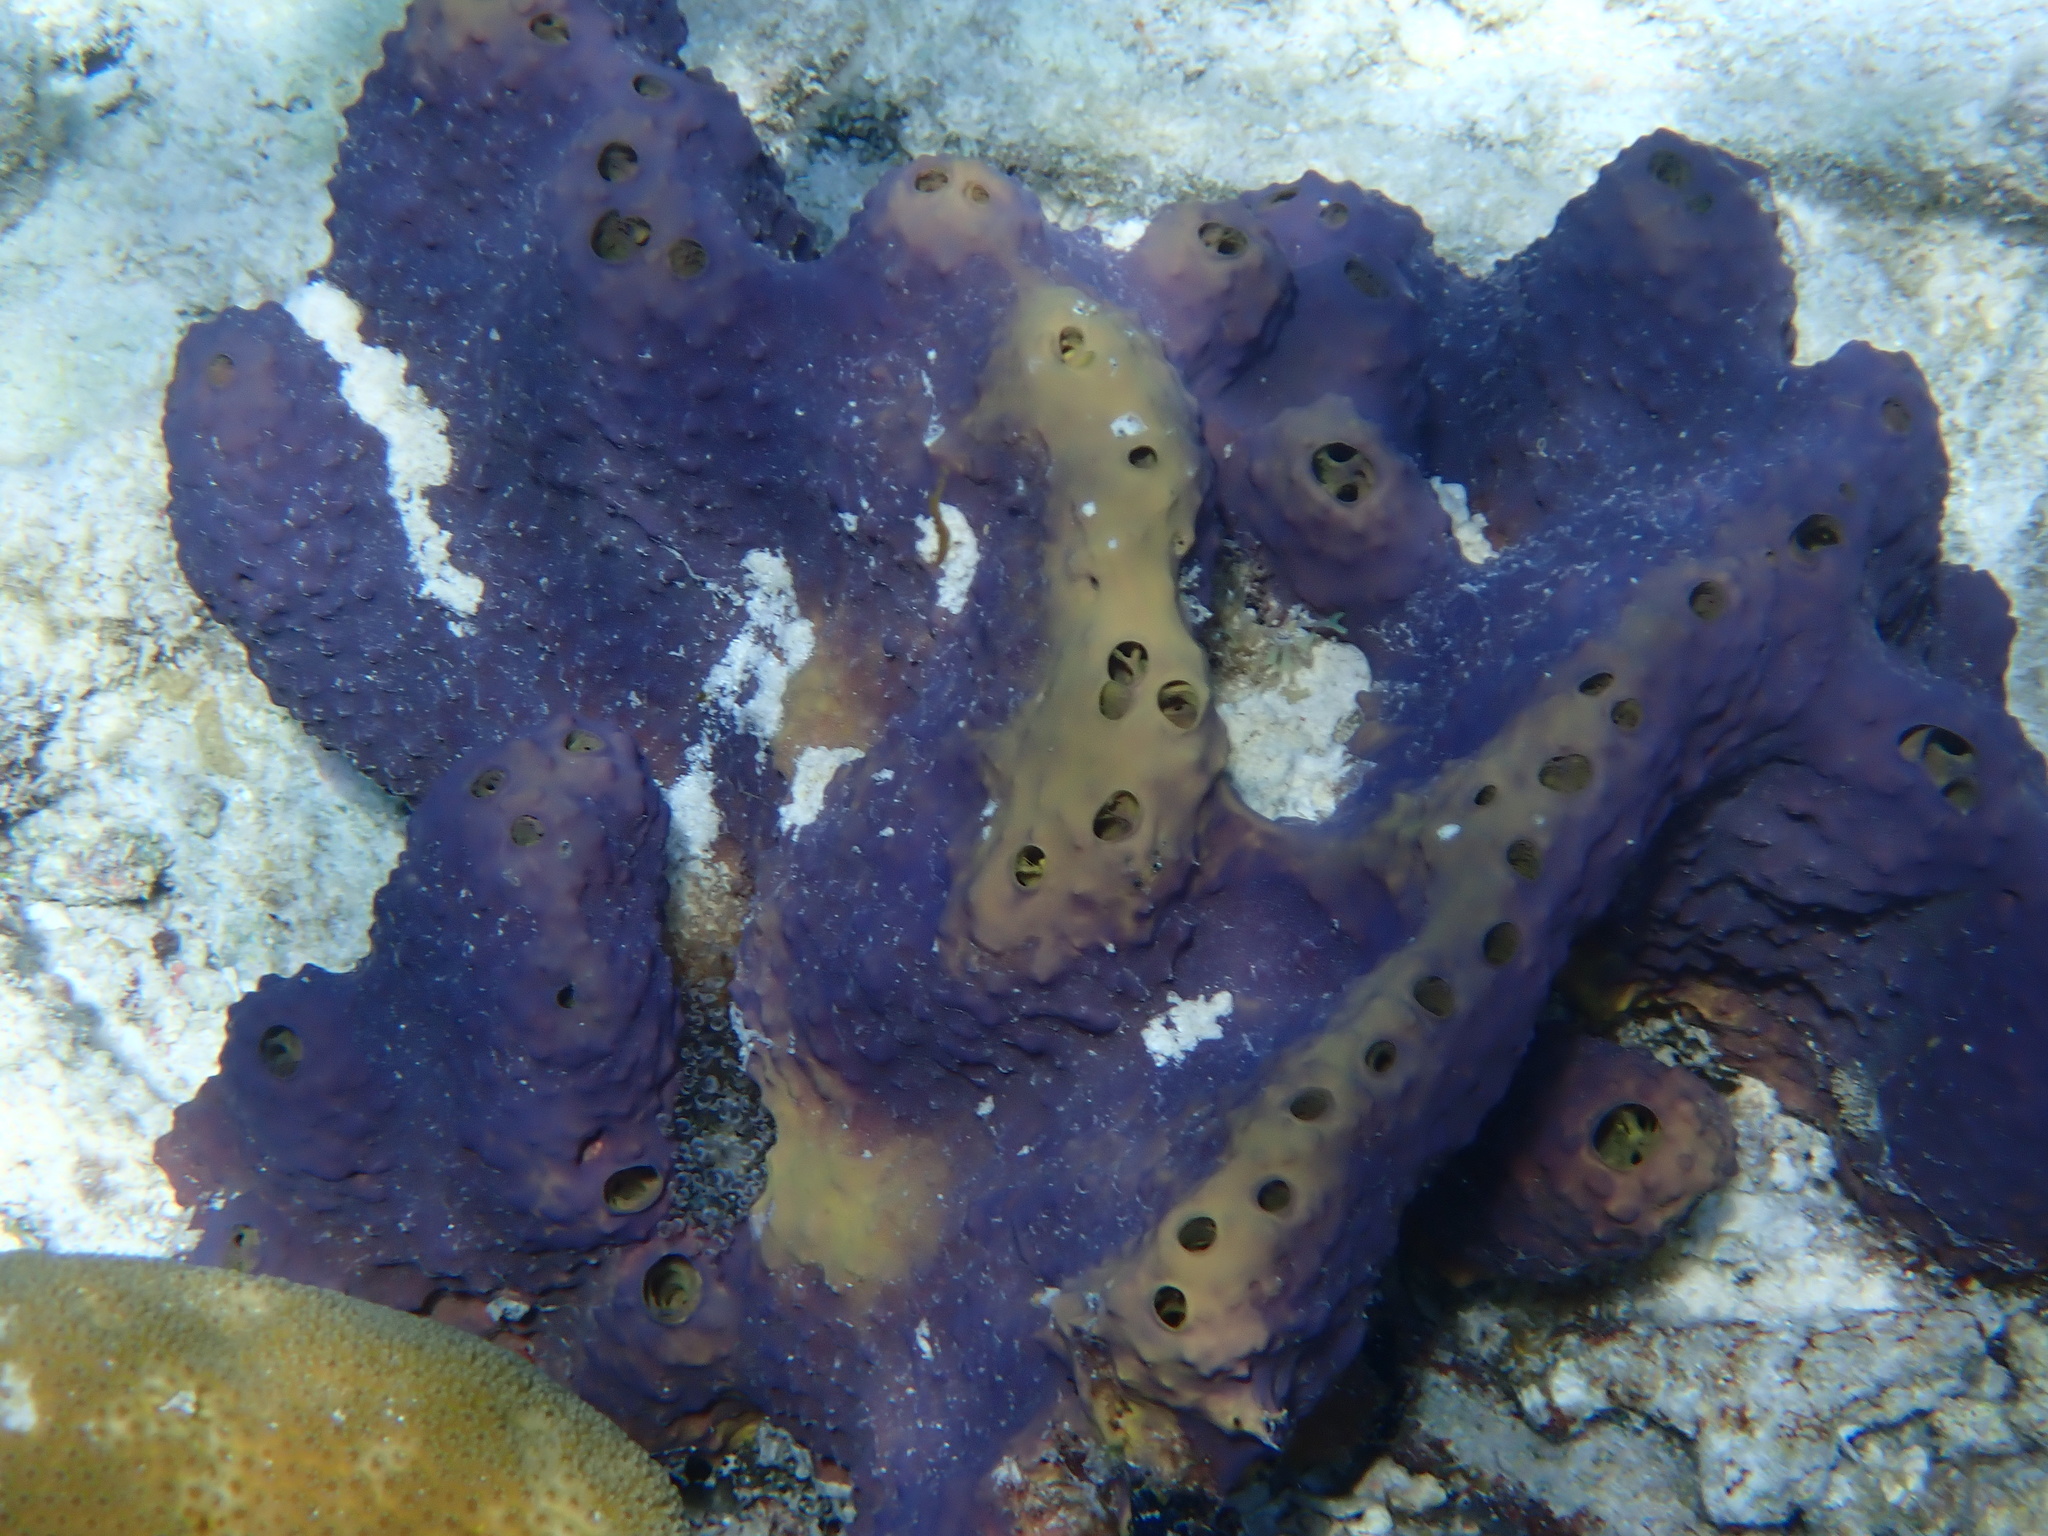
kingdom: Animalia
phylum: Porifera
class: Demospongiae
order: Verongiida
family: Aplysinidae
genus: Aiolochroia
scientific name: Aiolochroia crassa
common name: Branching tube sponge
